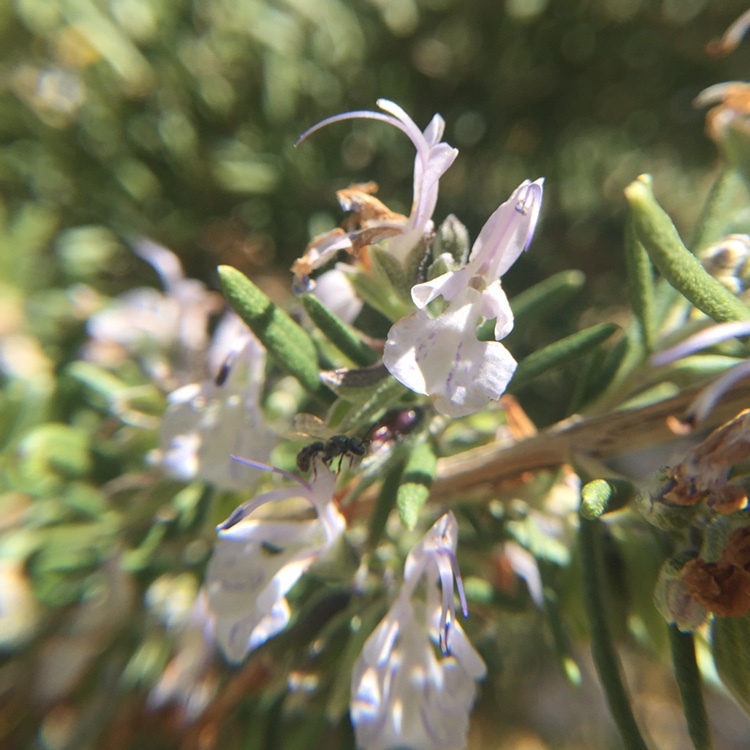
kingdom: Animalia
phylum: Arthropoda
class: Insecta
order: Hymenoptera
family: Halictidae
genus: Dialictus
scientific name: Dialictus
